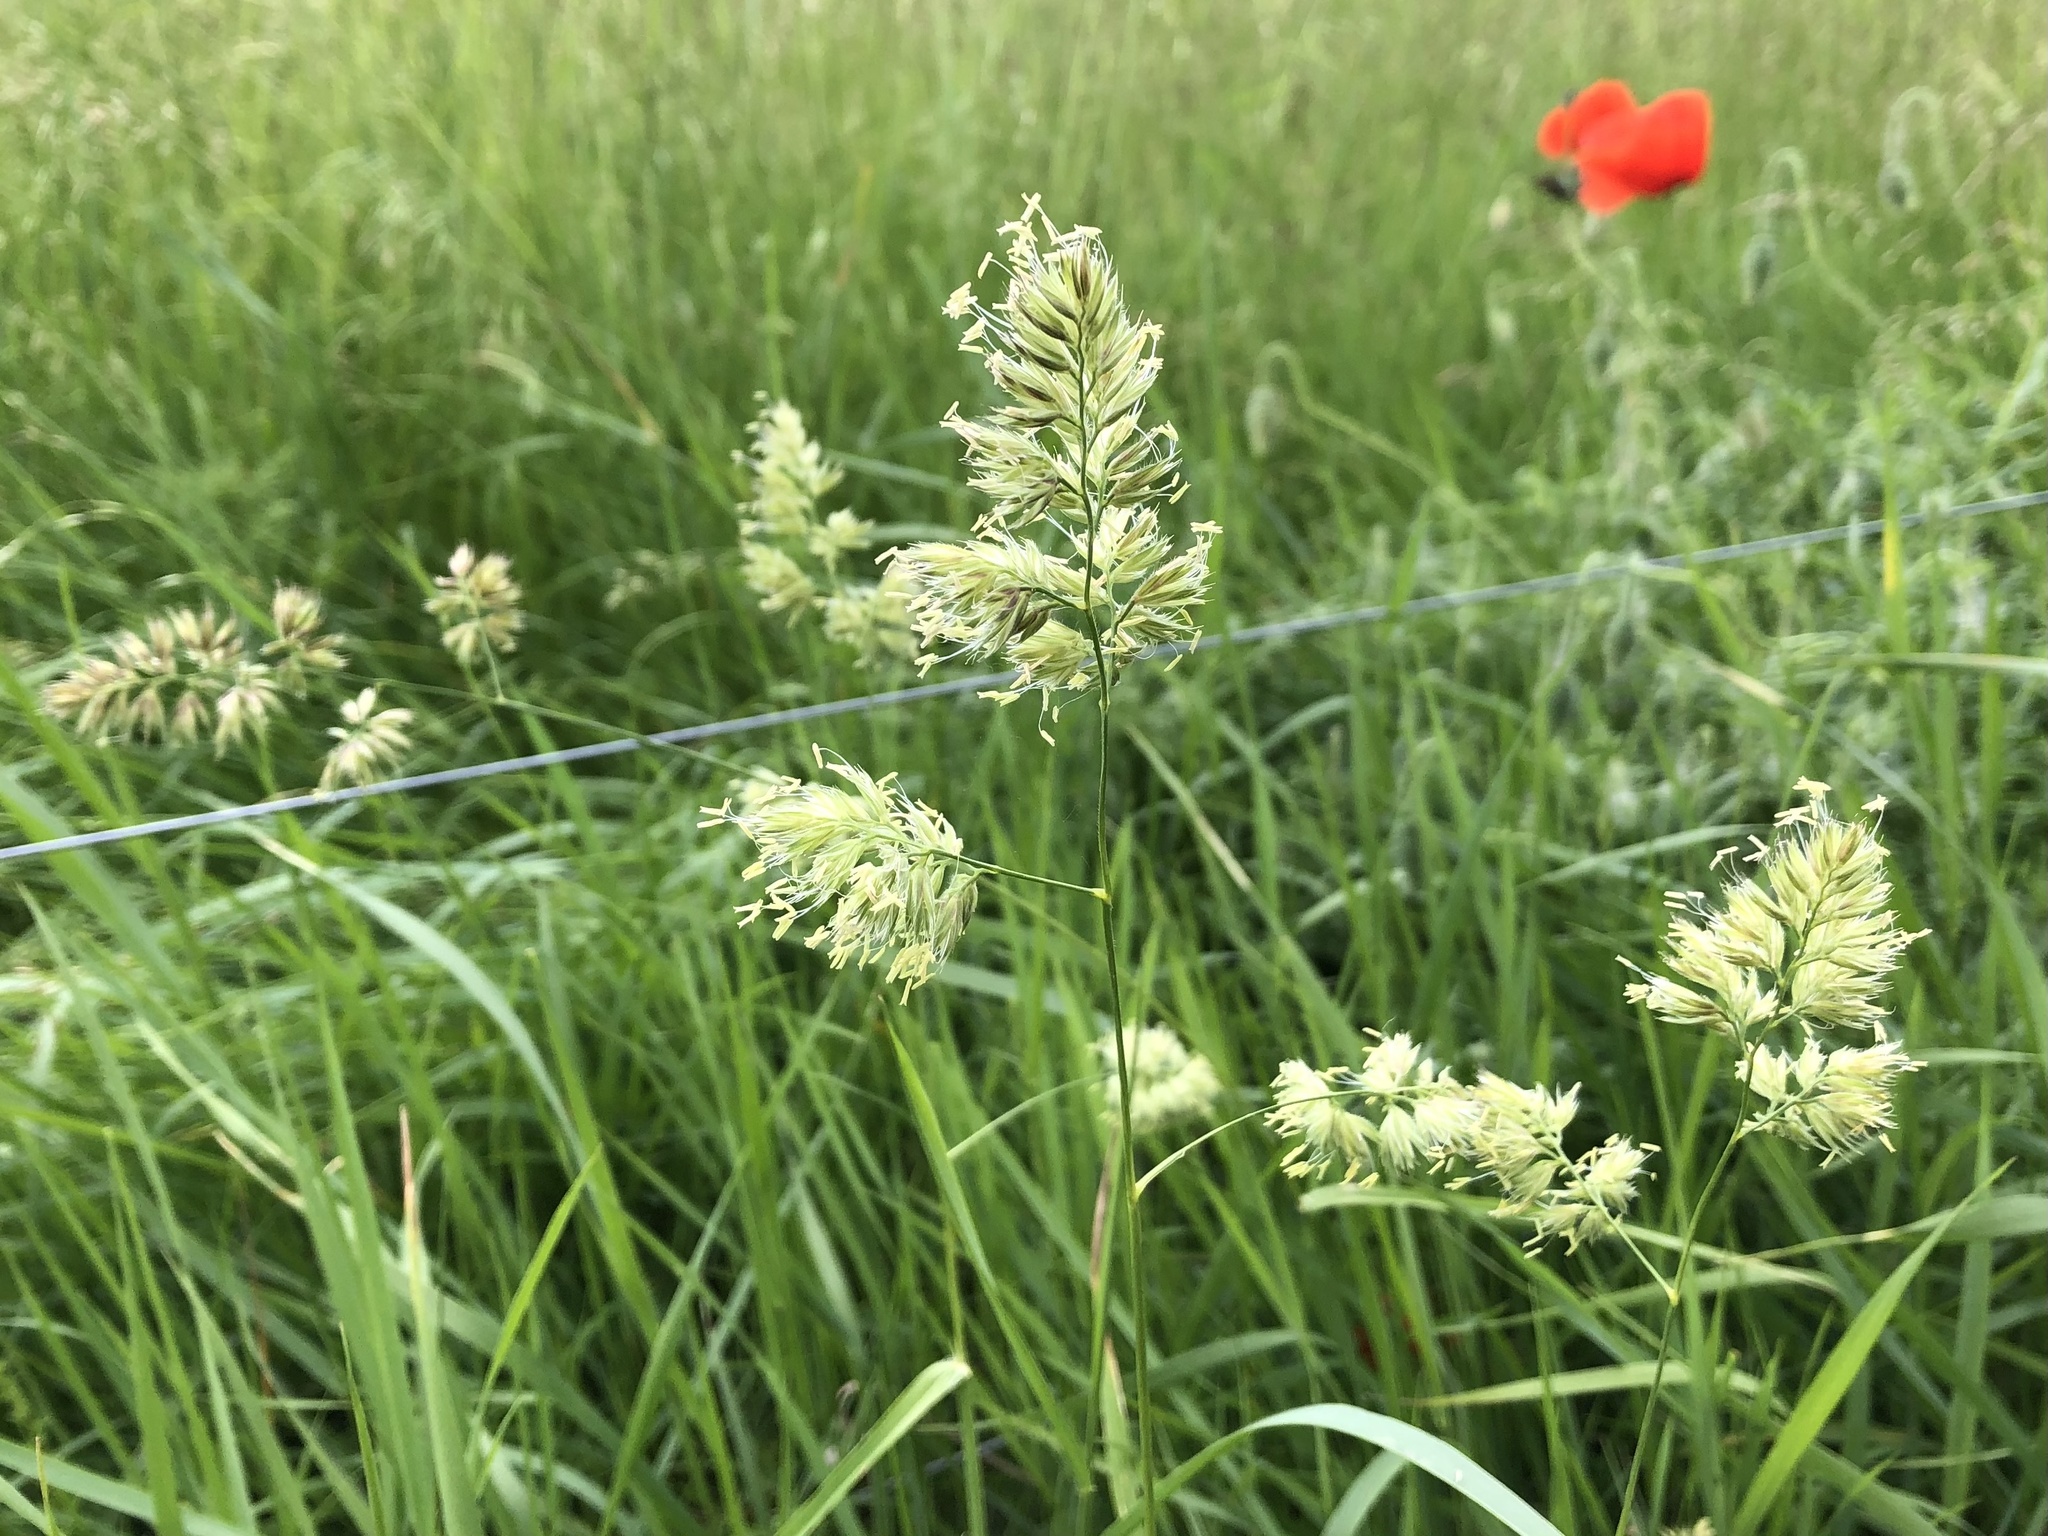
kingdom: Plantae
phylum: Tracheophyta
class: Liliopsida
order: Poales
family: Poaceae
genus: Dactylis
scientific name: Dactylis glomerata
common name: Orchardgrass
